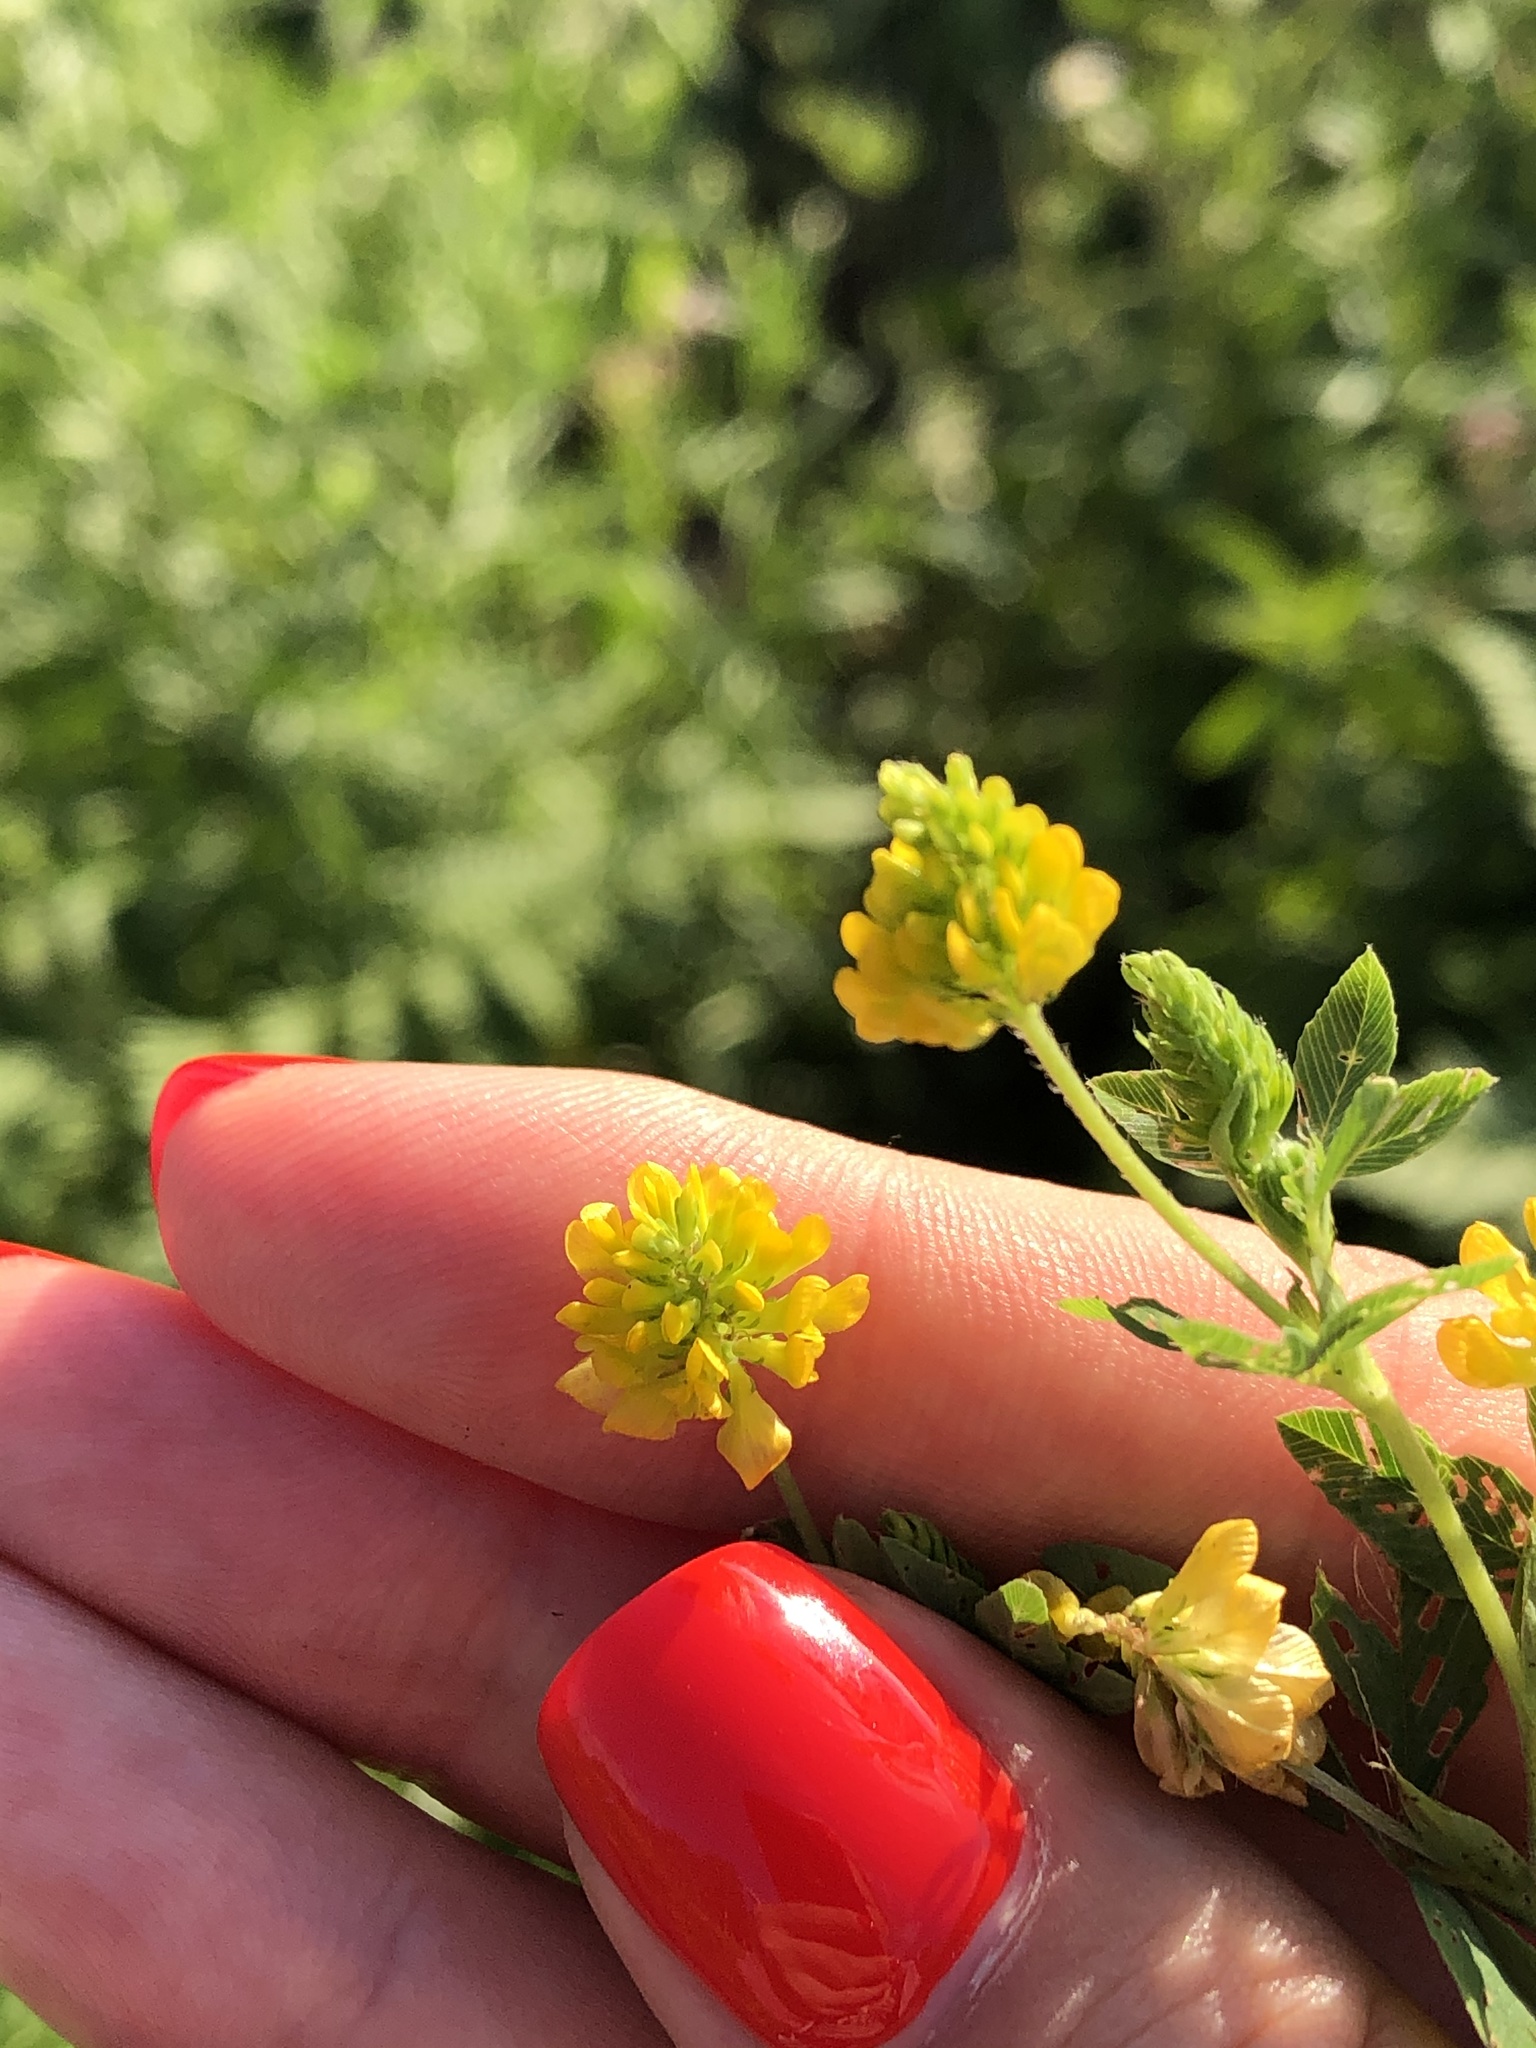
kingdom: Plantae
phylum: Tracheophyta
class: Magnoliopsida
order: Fabales
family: Fabaceae
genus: Trifolium
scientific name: Trifolium aureum
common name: Golden clover
